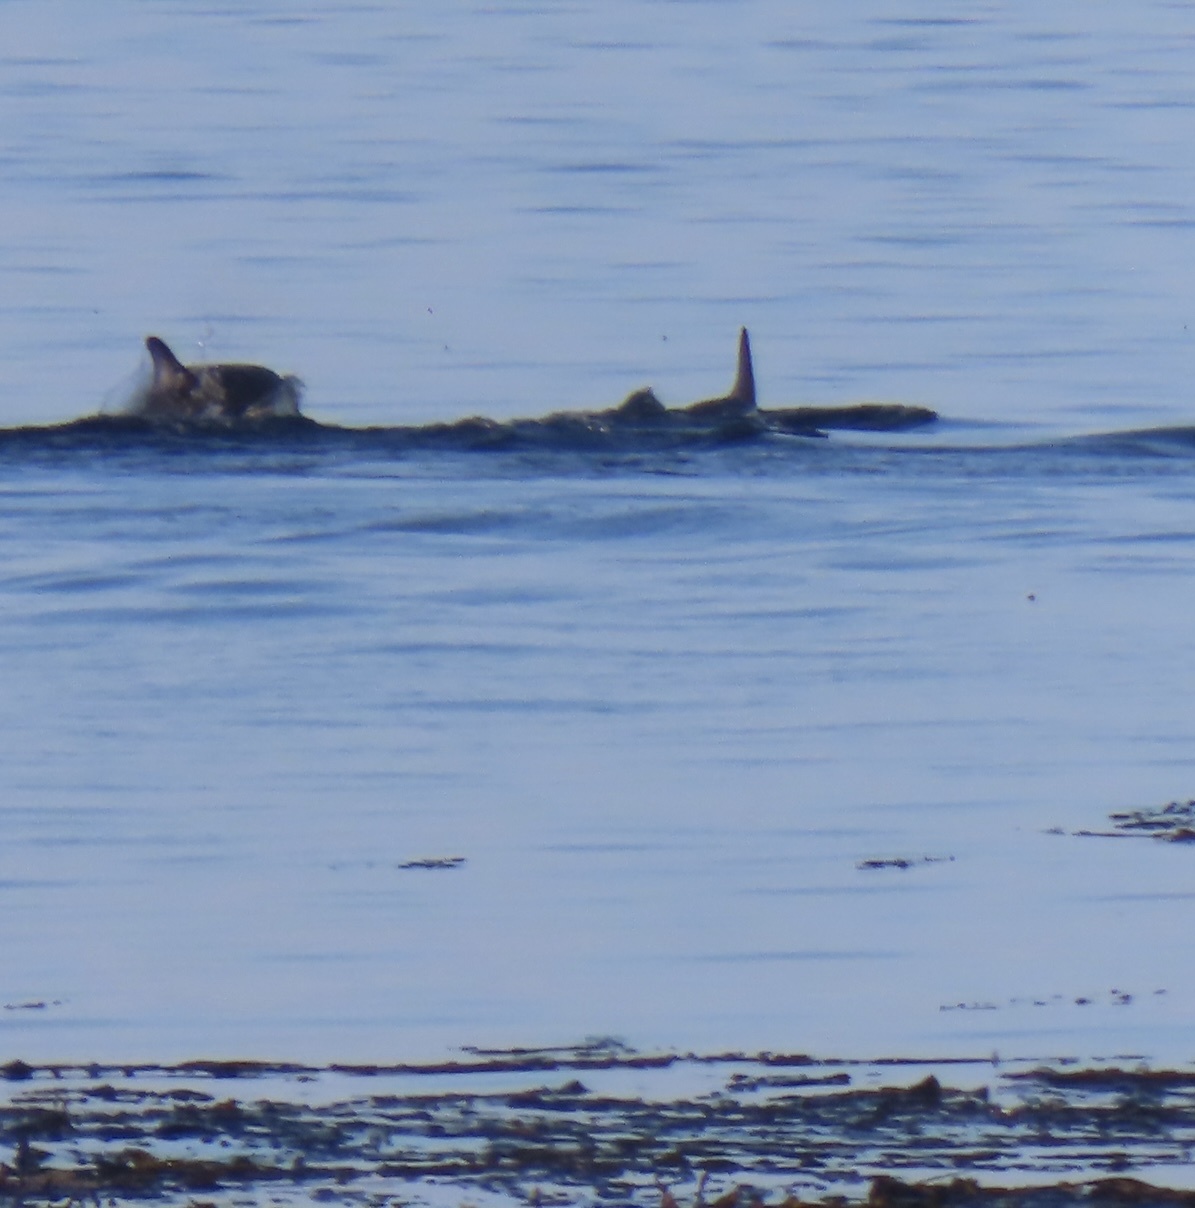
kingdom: Animalia
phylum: Chordata
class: Mammalia
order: Cetacea
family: Delphinidae
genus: Lagenorhynchus
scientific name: Lagenorhynchus australis
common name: Peale's dolphin
